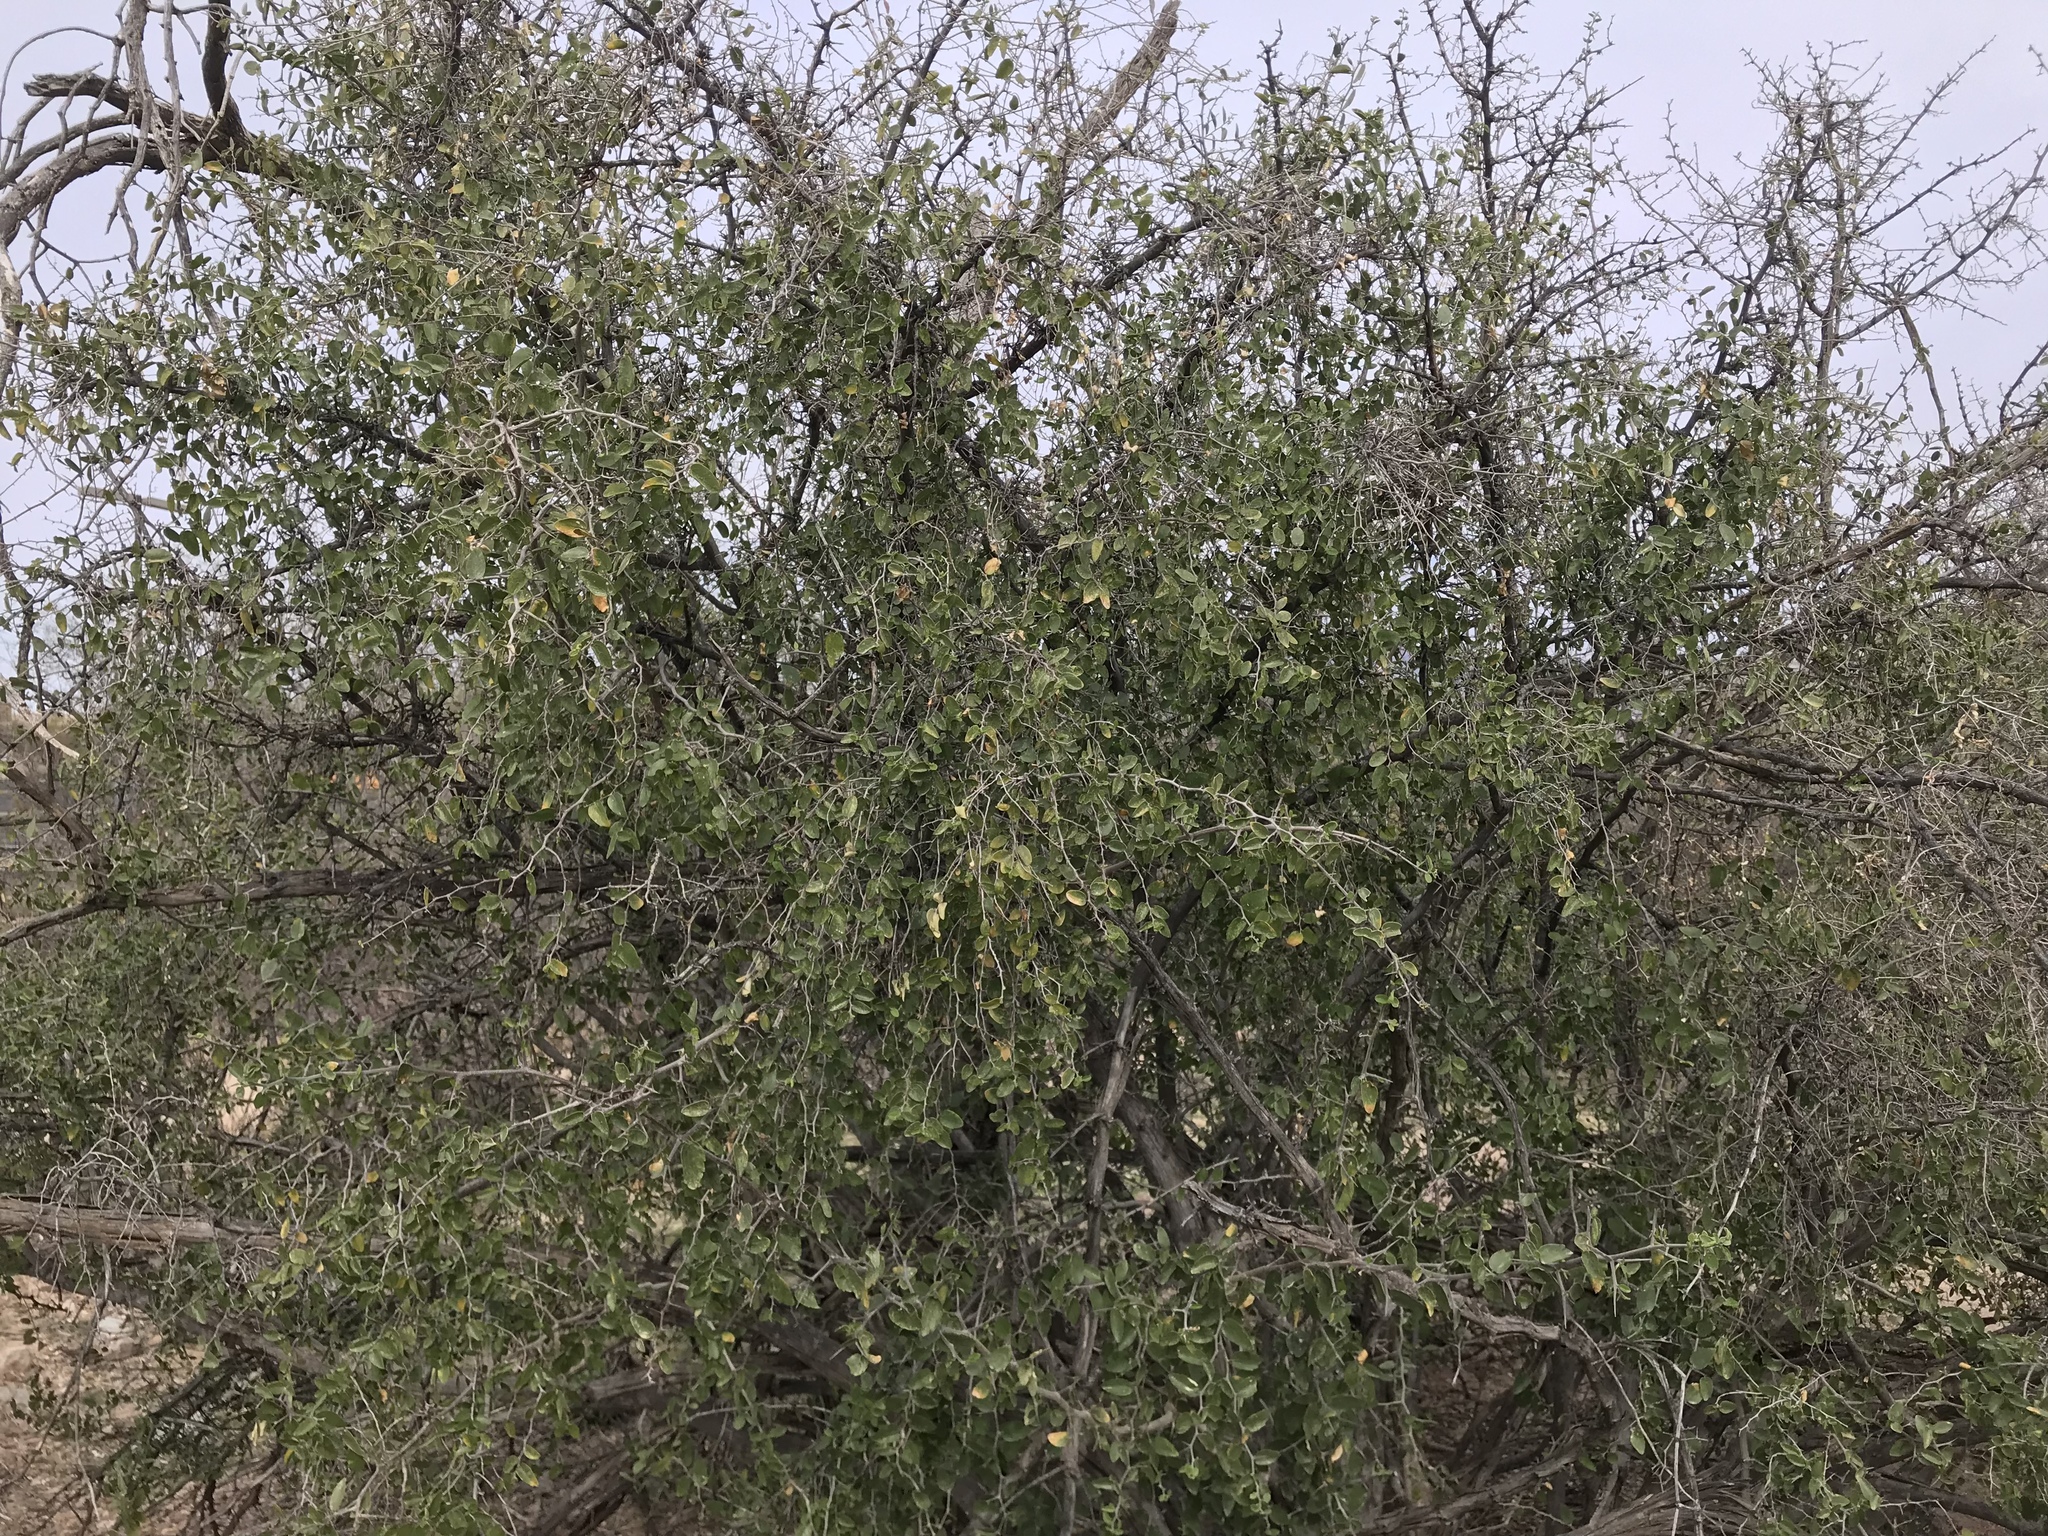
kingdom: Plantae
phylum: Tracheophyta
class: Magnoliopsida
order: Rosales
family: Cannabaceae
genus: Celtis
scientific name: Celtis pallida
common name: Desert hackberry
